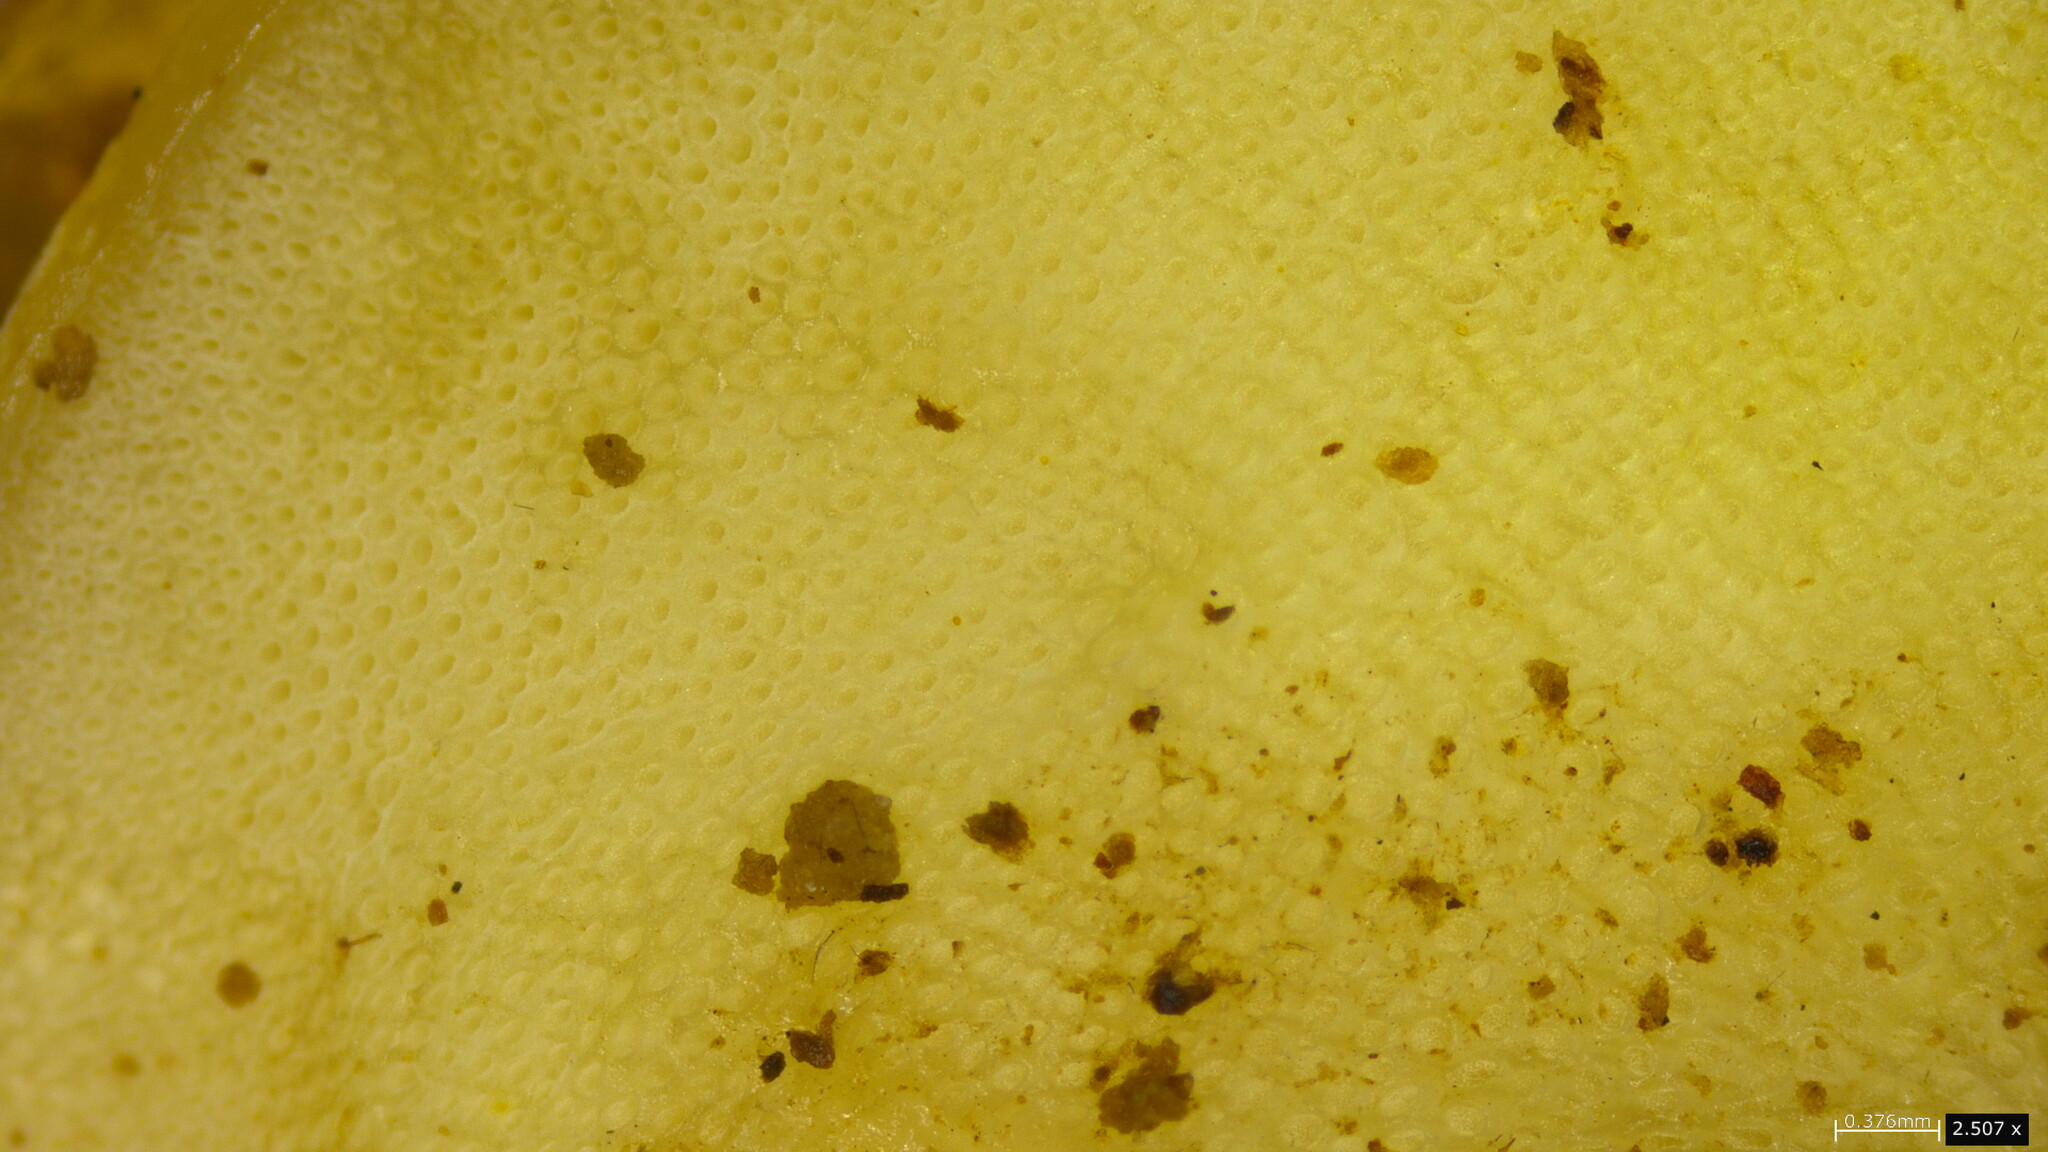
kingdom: Fungi
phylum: Basidiomycota
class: Agaricomycetes
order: Agaricales
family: Mycenaceae
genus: Favolaschia
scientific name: Favolaschia gelatina
